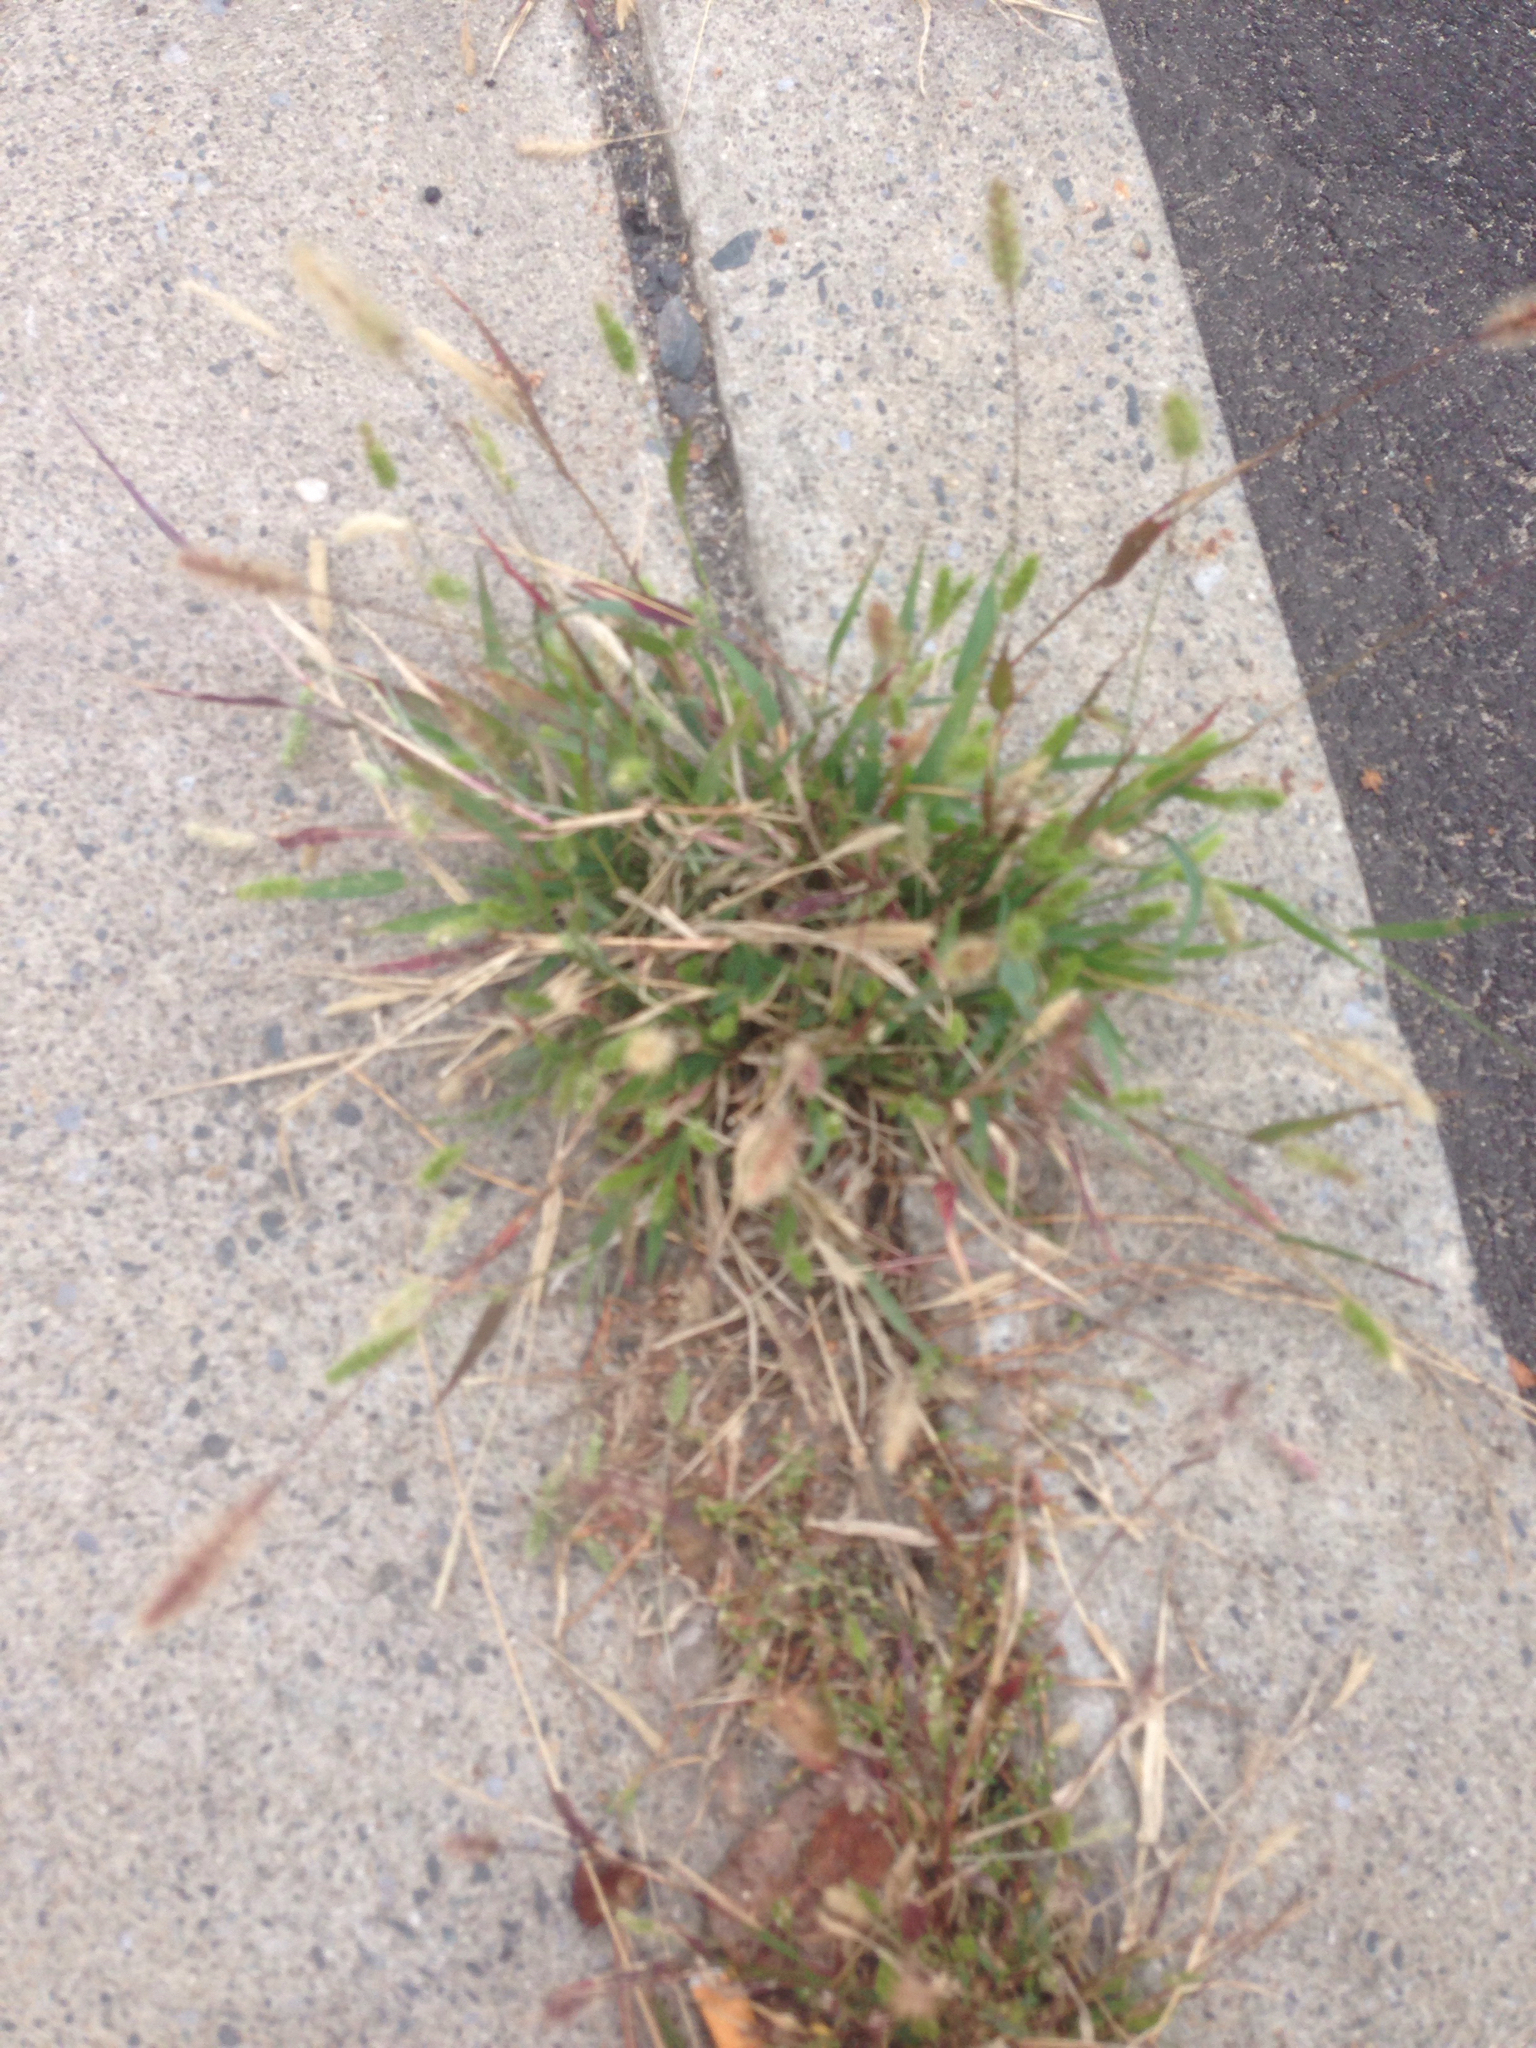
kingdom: Plantae
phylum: Tracheophyta
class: Liliopsida
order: Poales
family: Poaceae
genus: Setaria
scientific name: Setaria viridis
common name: Green bristlegrass
